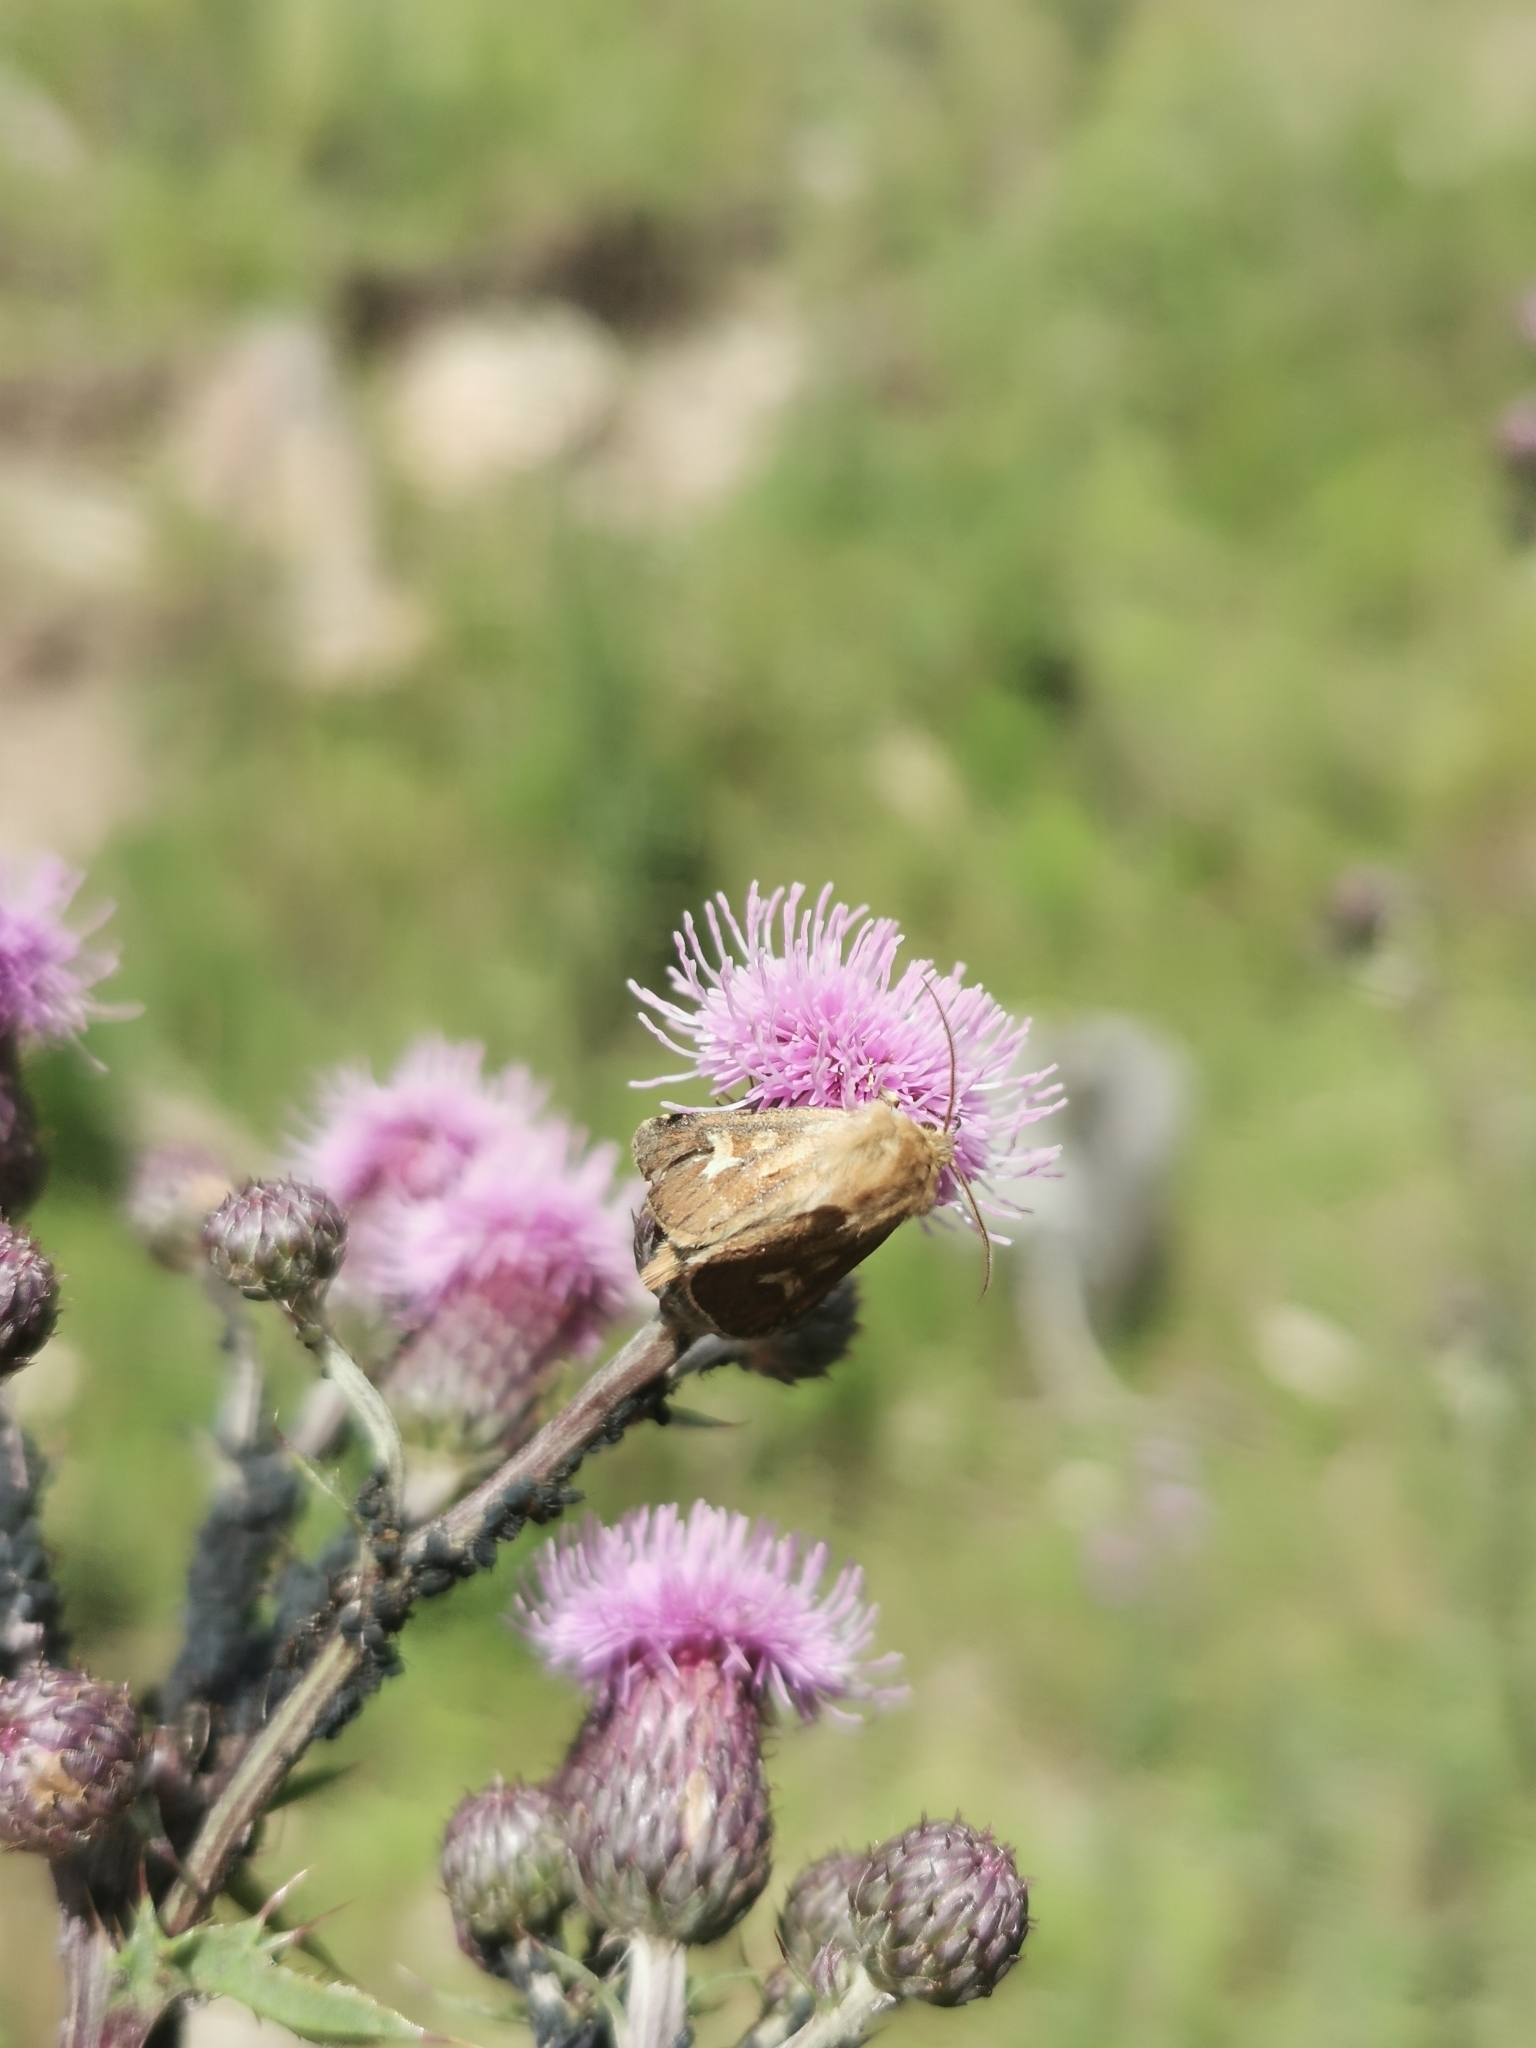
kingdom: Animalia
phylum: Arthropoda
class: Insecta
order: Lepidoptera
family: Noctuidae
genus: Cerapteryx
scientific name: Cerapteryx graminis
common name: Antler moth
